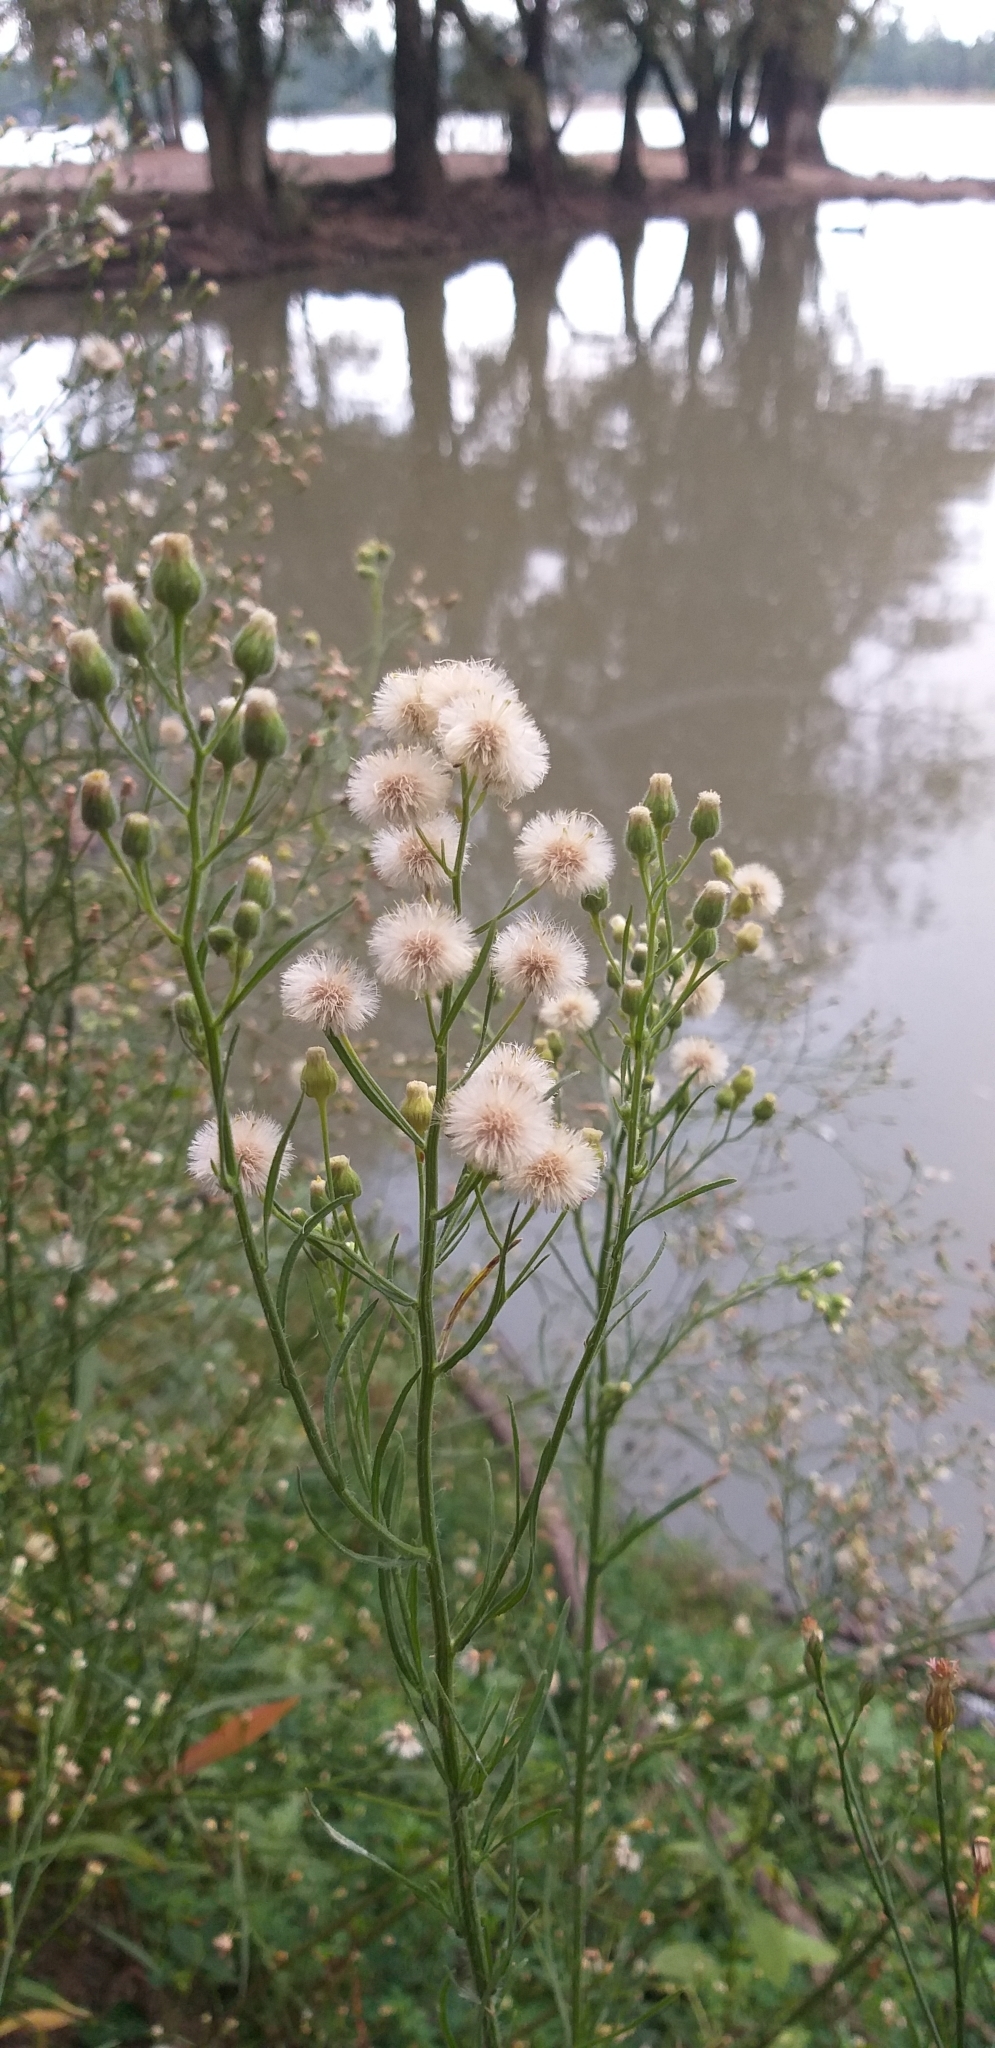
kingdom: Plantae
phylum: Tracheophyta
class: Magnoliopsida
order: Asterales
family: Asteraceae
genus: Erigeron
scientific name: Erigeron bonariensis
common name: Argentine fleabane
